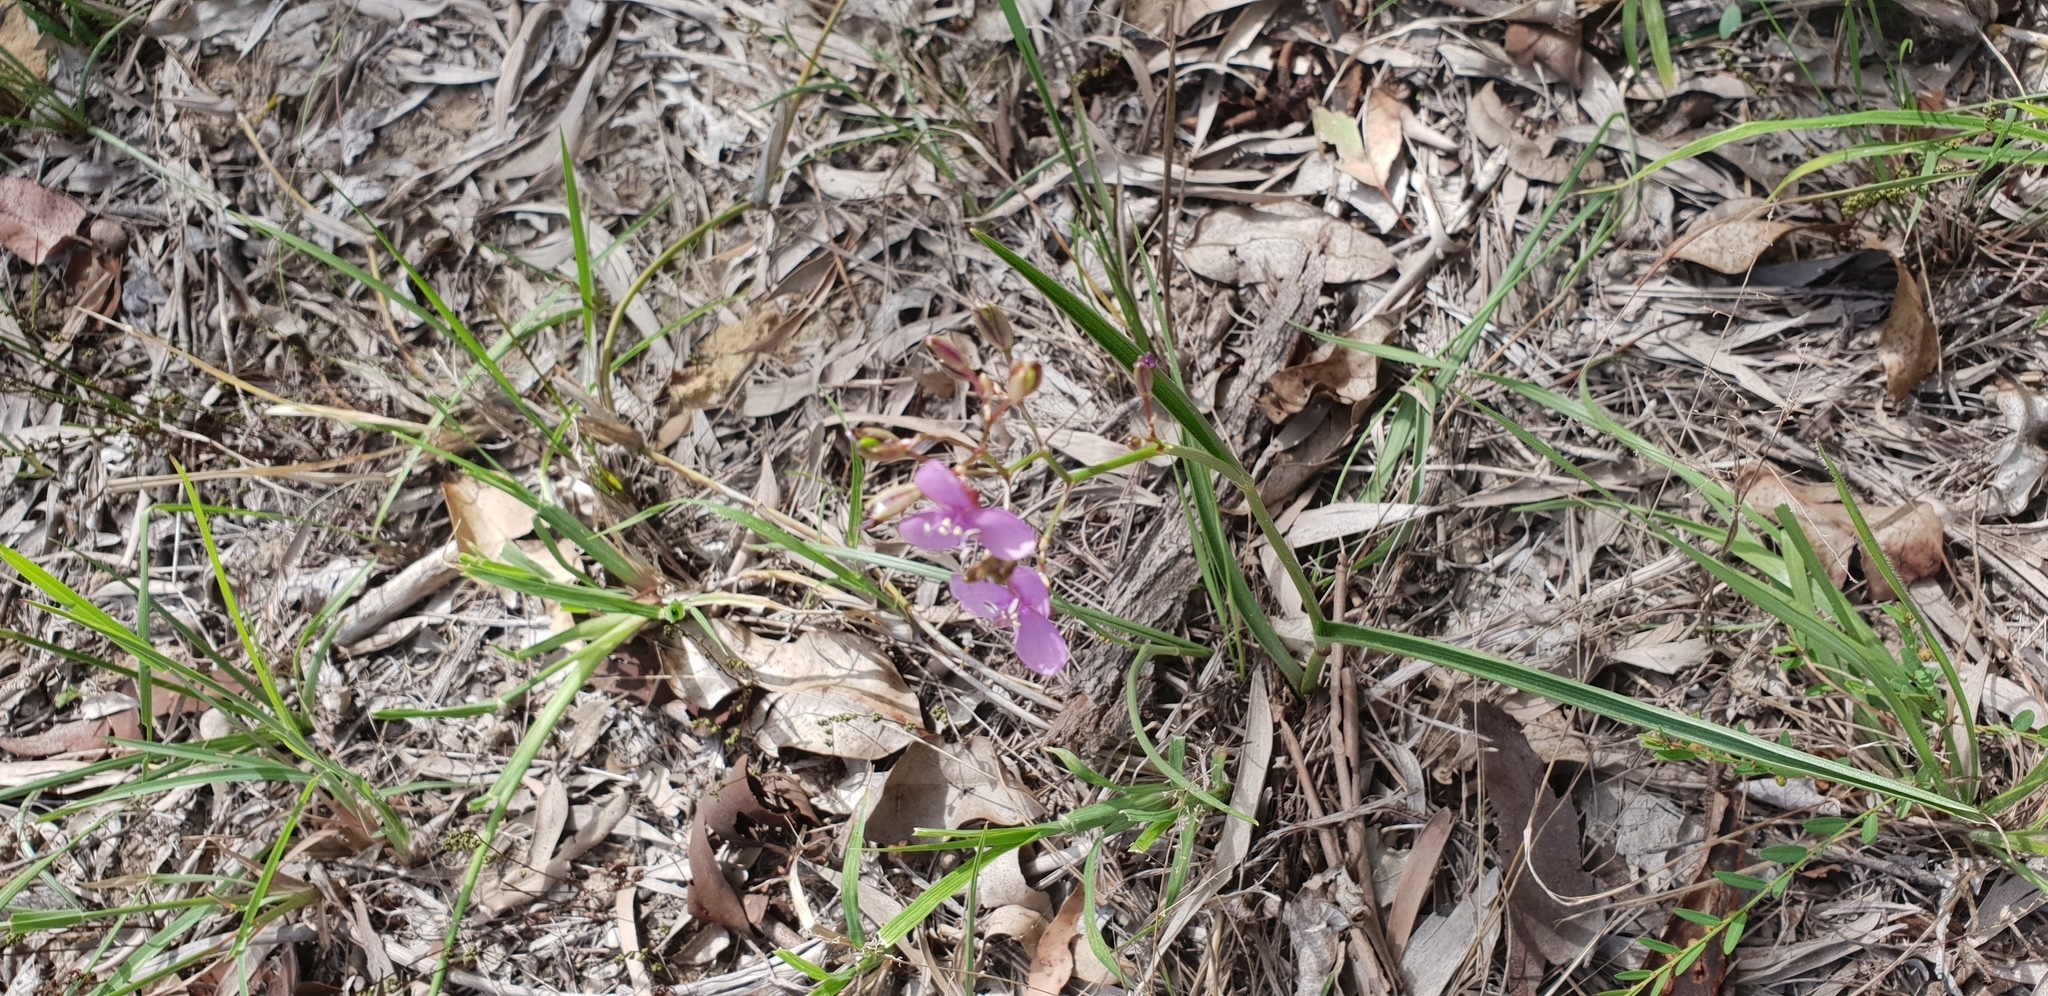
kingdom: Plantae
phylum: Tracheophyta
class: Liliopsida
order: Commelinales
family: Commelinaceae
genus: Murdannia
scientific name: Murdannia graminea
